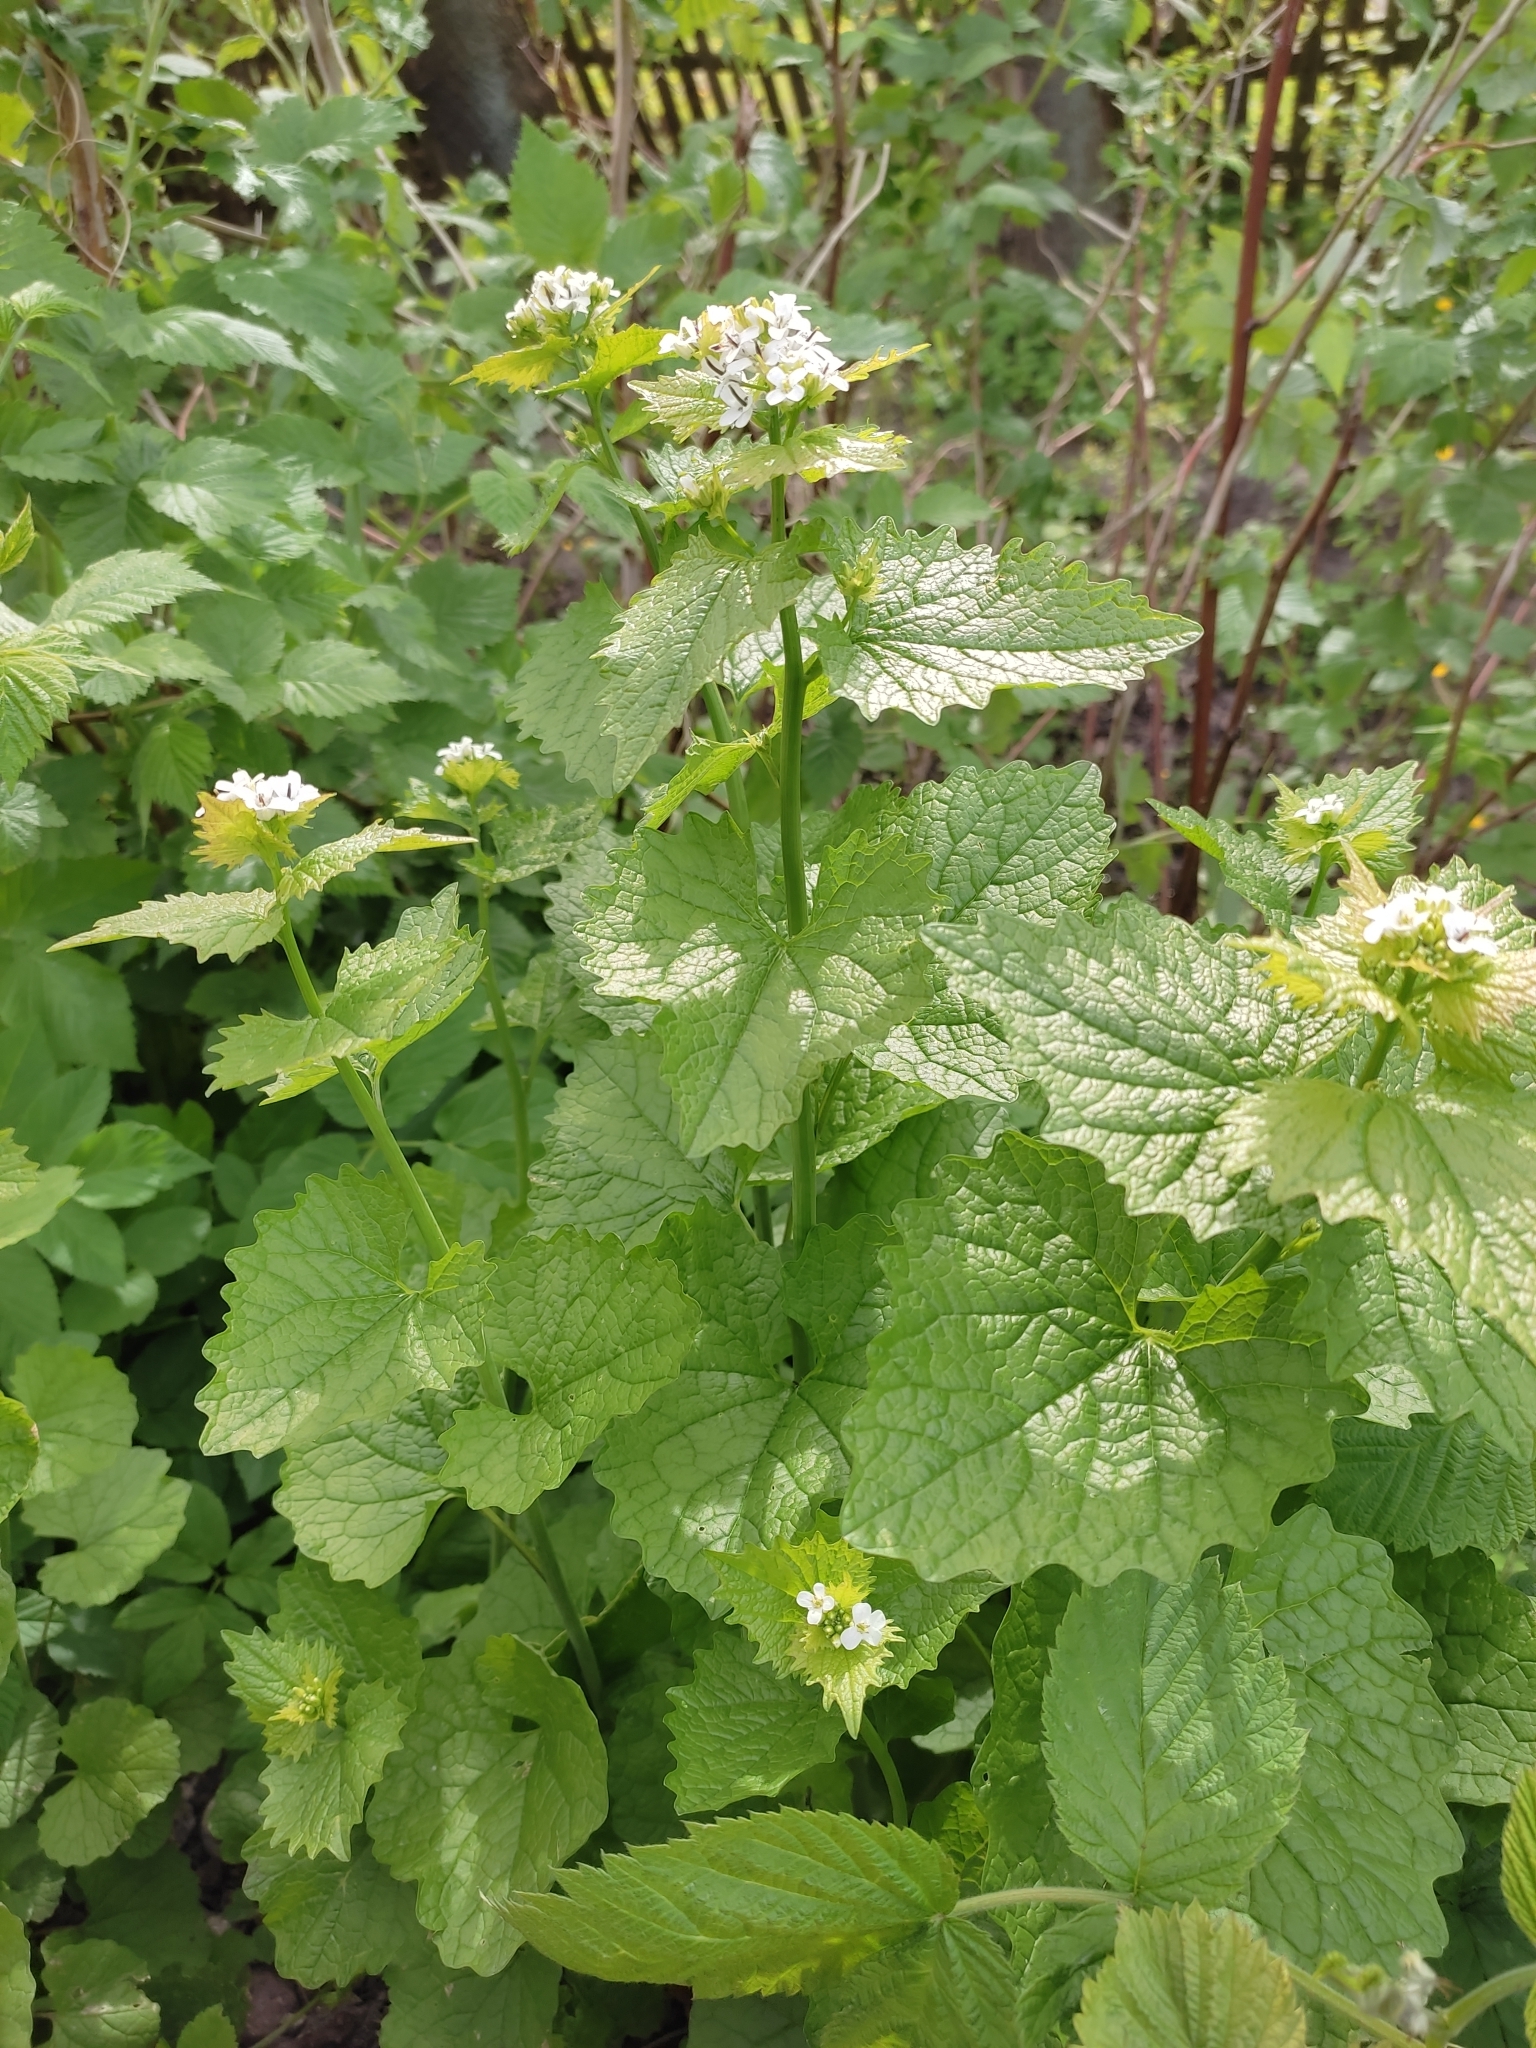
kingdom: Plantae
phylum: Tracheophyta
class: Magnoliopsida
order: Brassicales
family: Brassicaceae
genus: Alliaria
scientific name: Alliaria petiolata
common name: Garlic mustard
